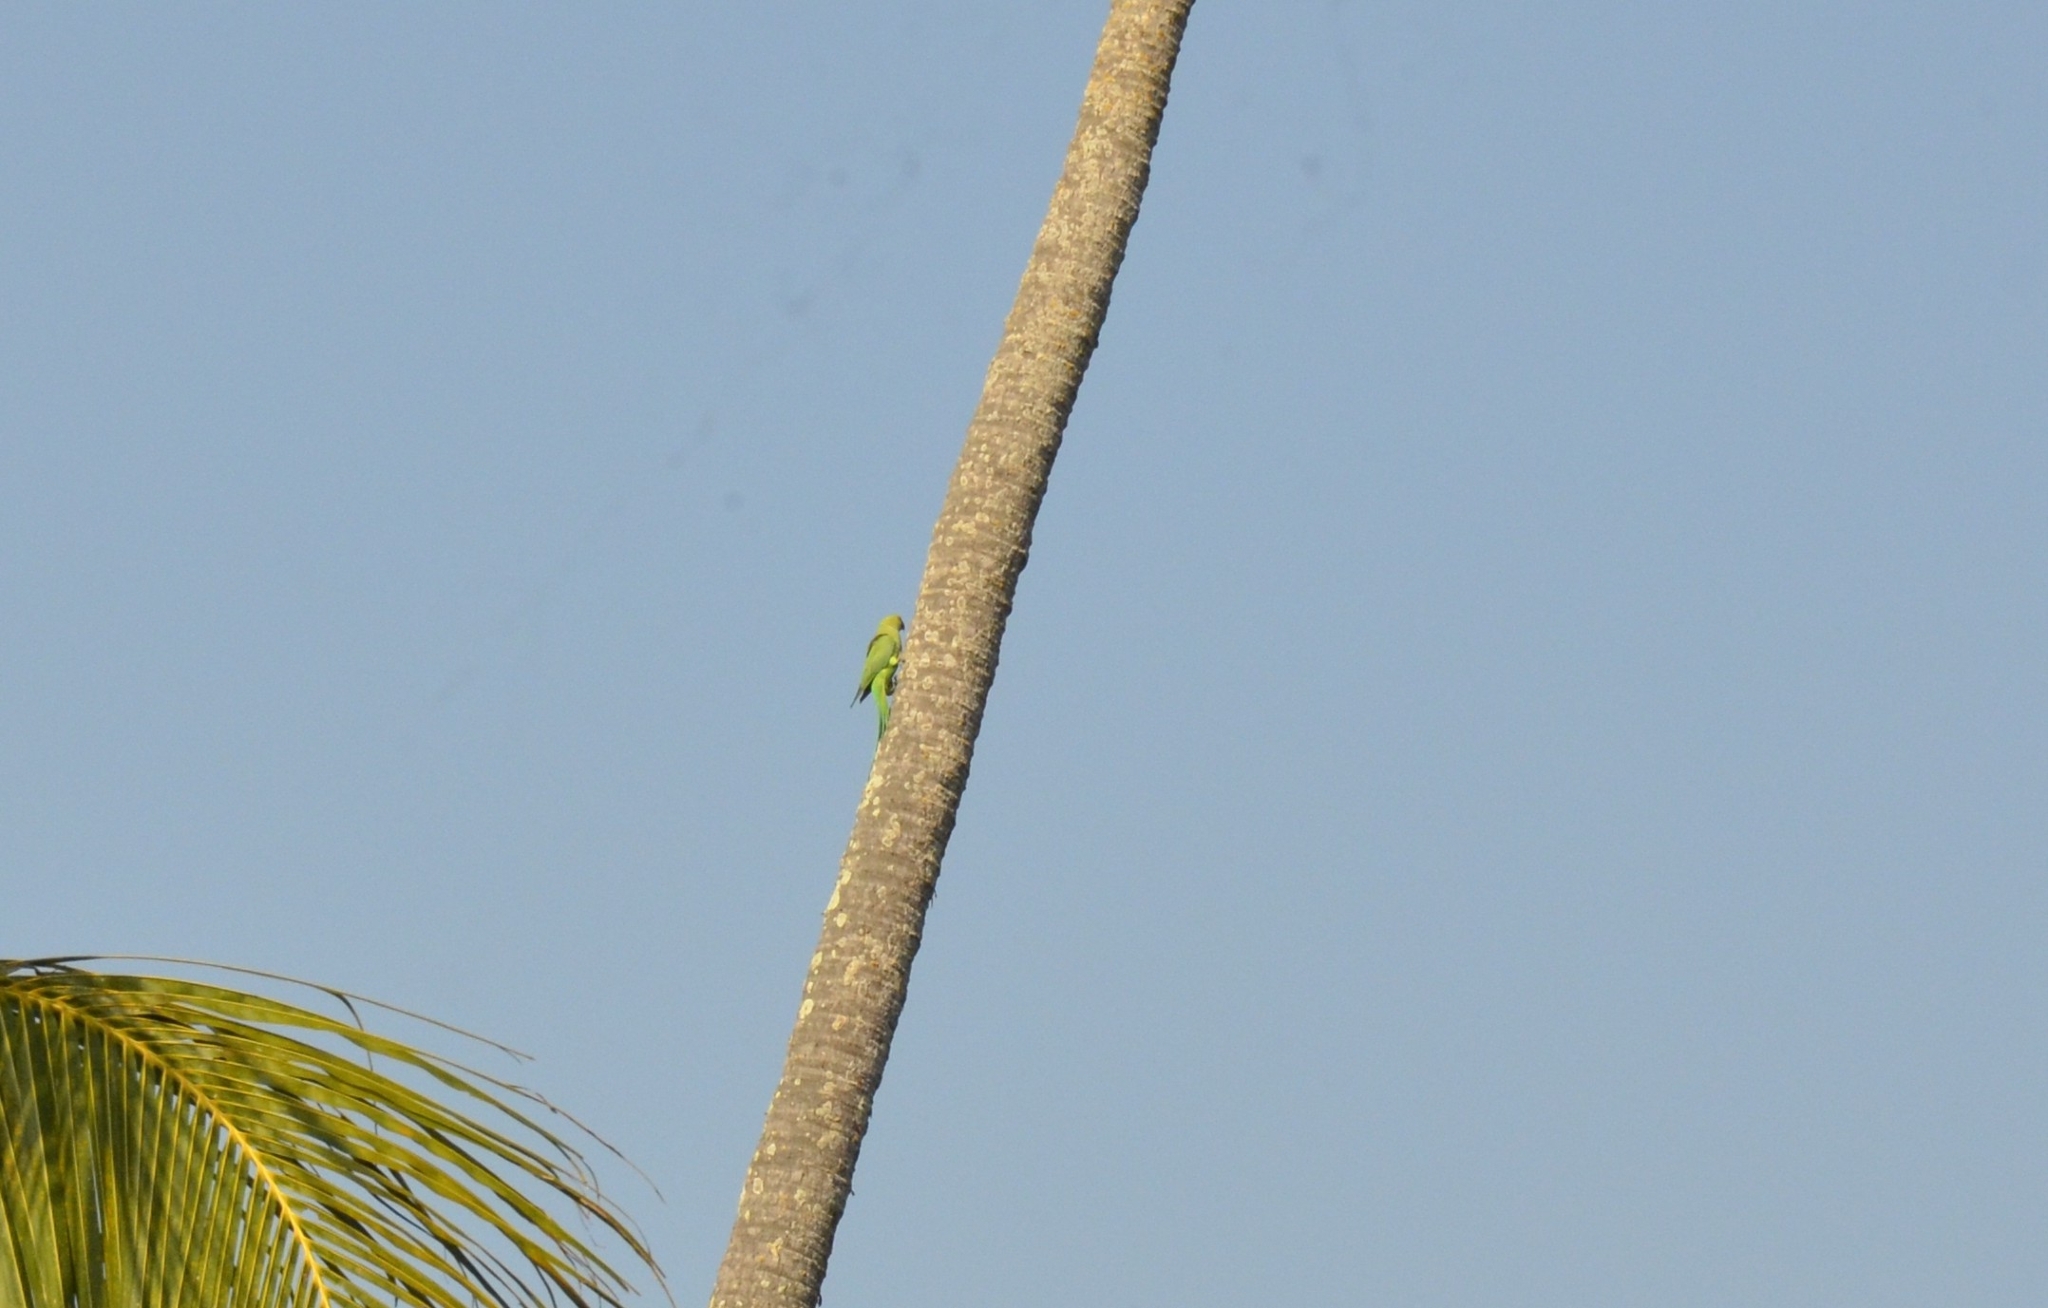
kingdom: Animalia
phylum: Chordata
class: Aves
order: Psittaciformes
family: Psittacidae
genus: Psittacula
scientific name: Psittacula krameri
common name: Rose-ringed parakeet
